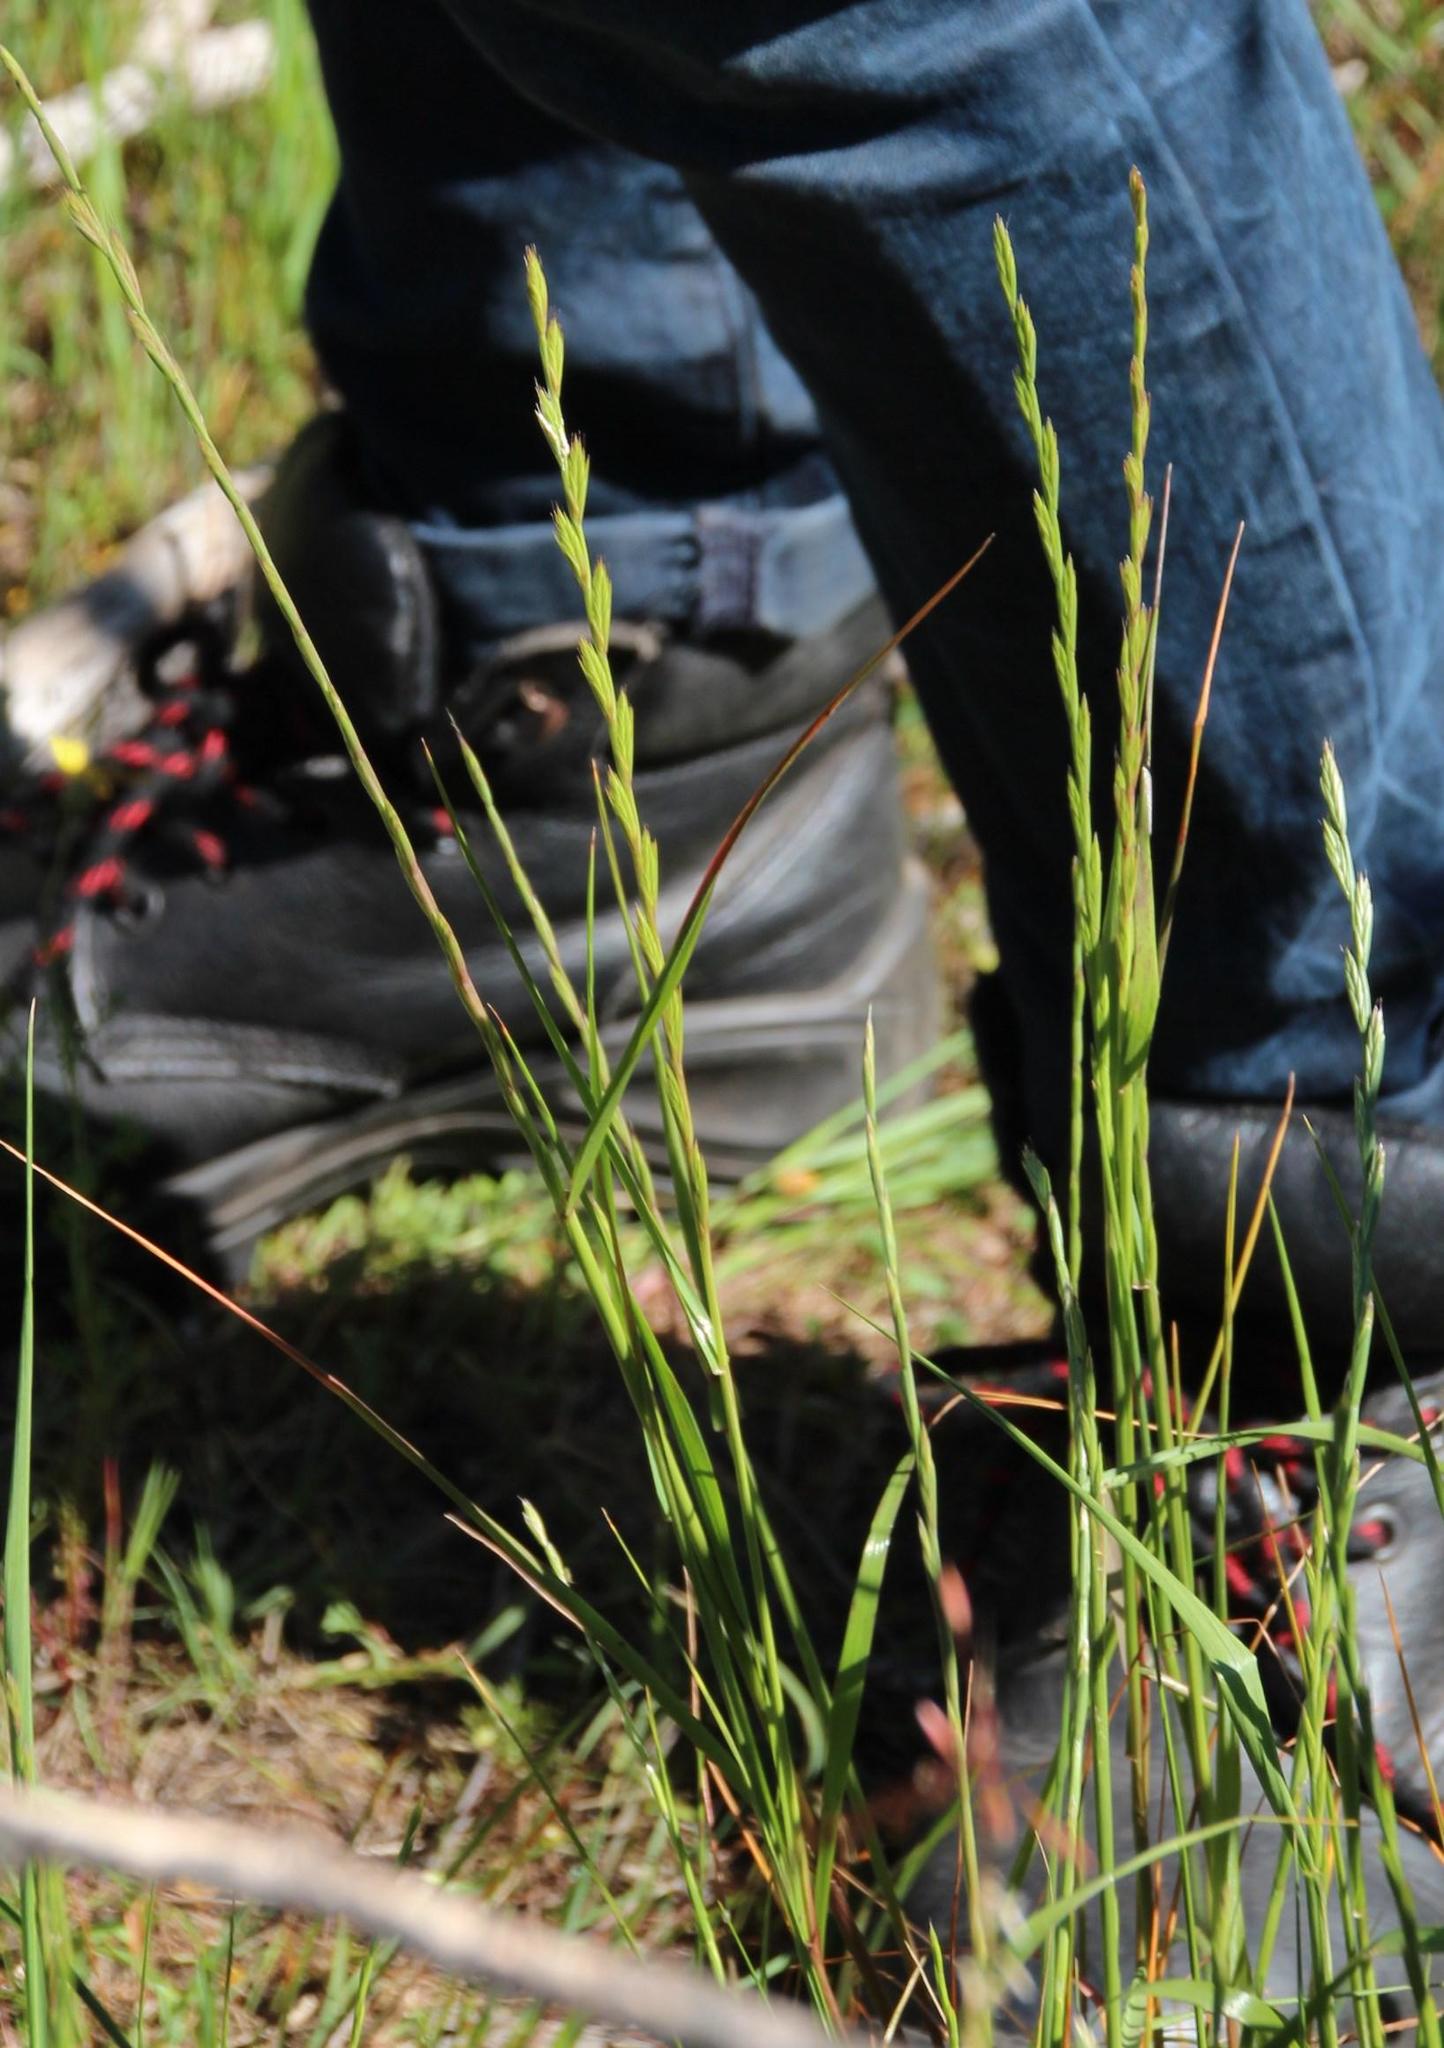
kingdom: Plantae
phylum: Tracheophyta
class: Liliopsida
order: Poales
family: Poaceae
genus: Lolium
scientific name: Lolium multiflorum
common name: Annual ryegrass
